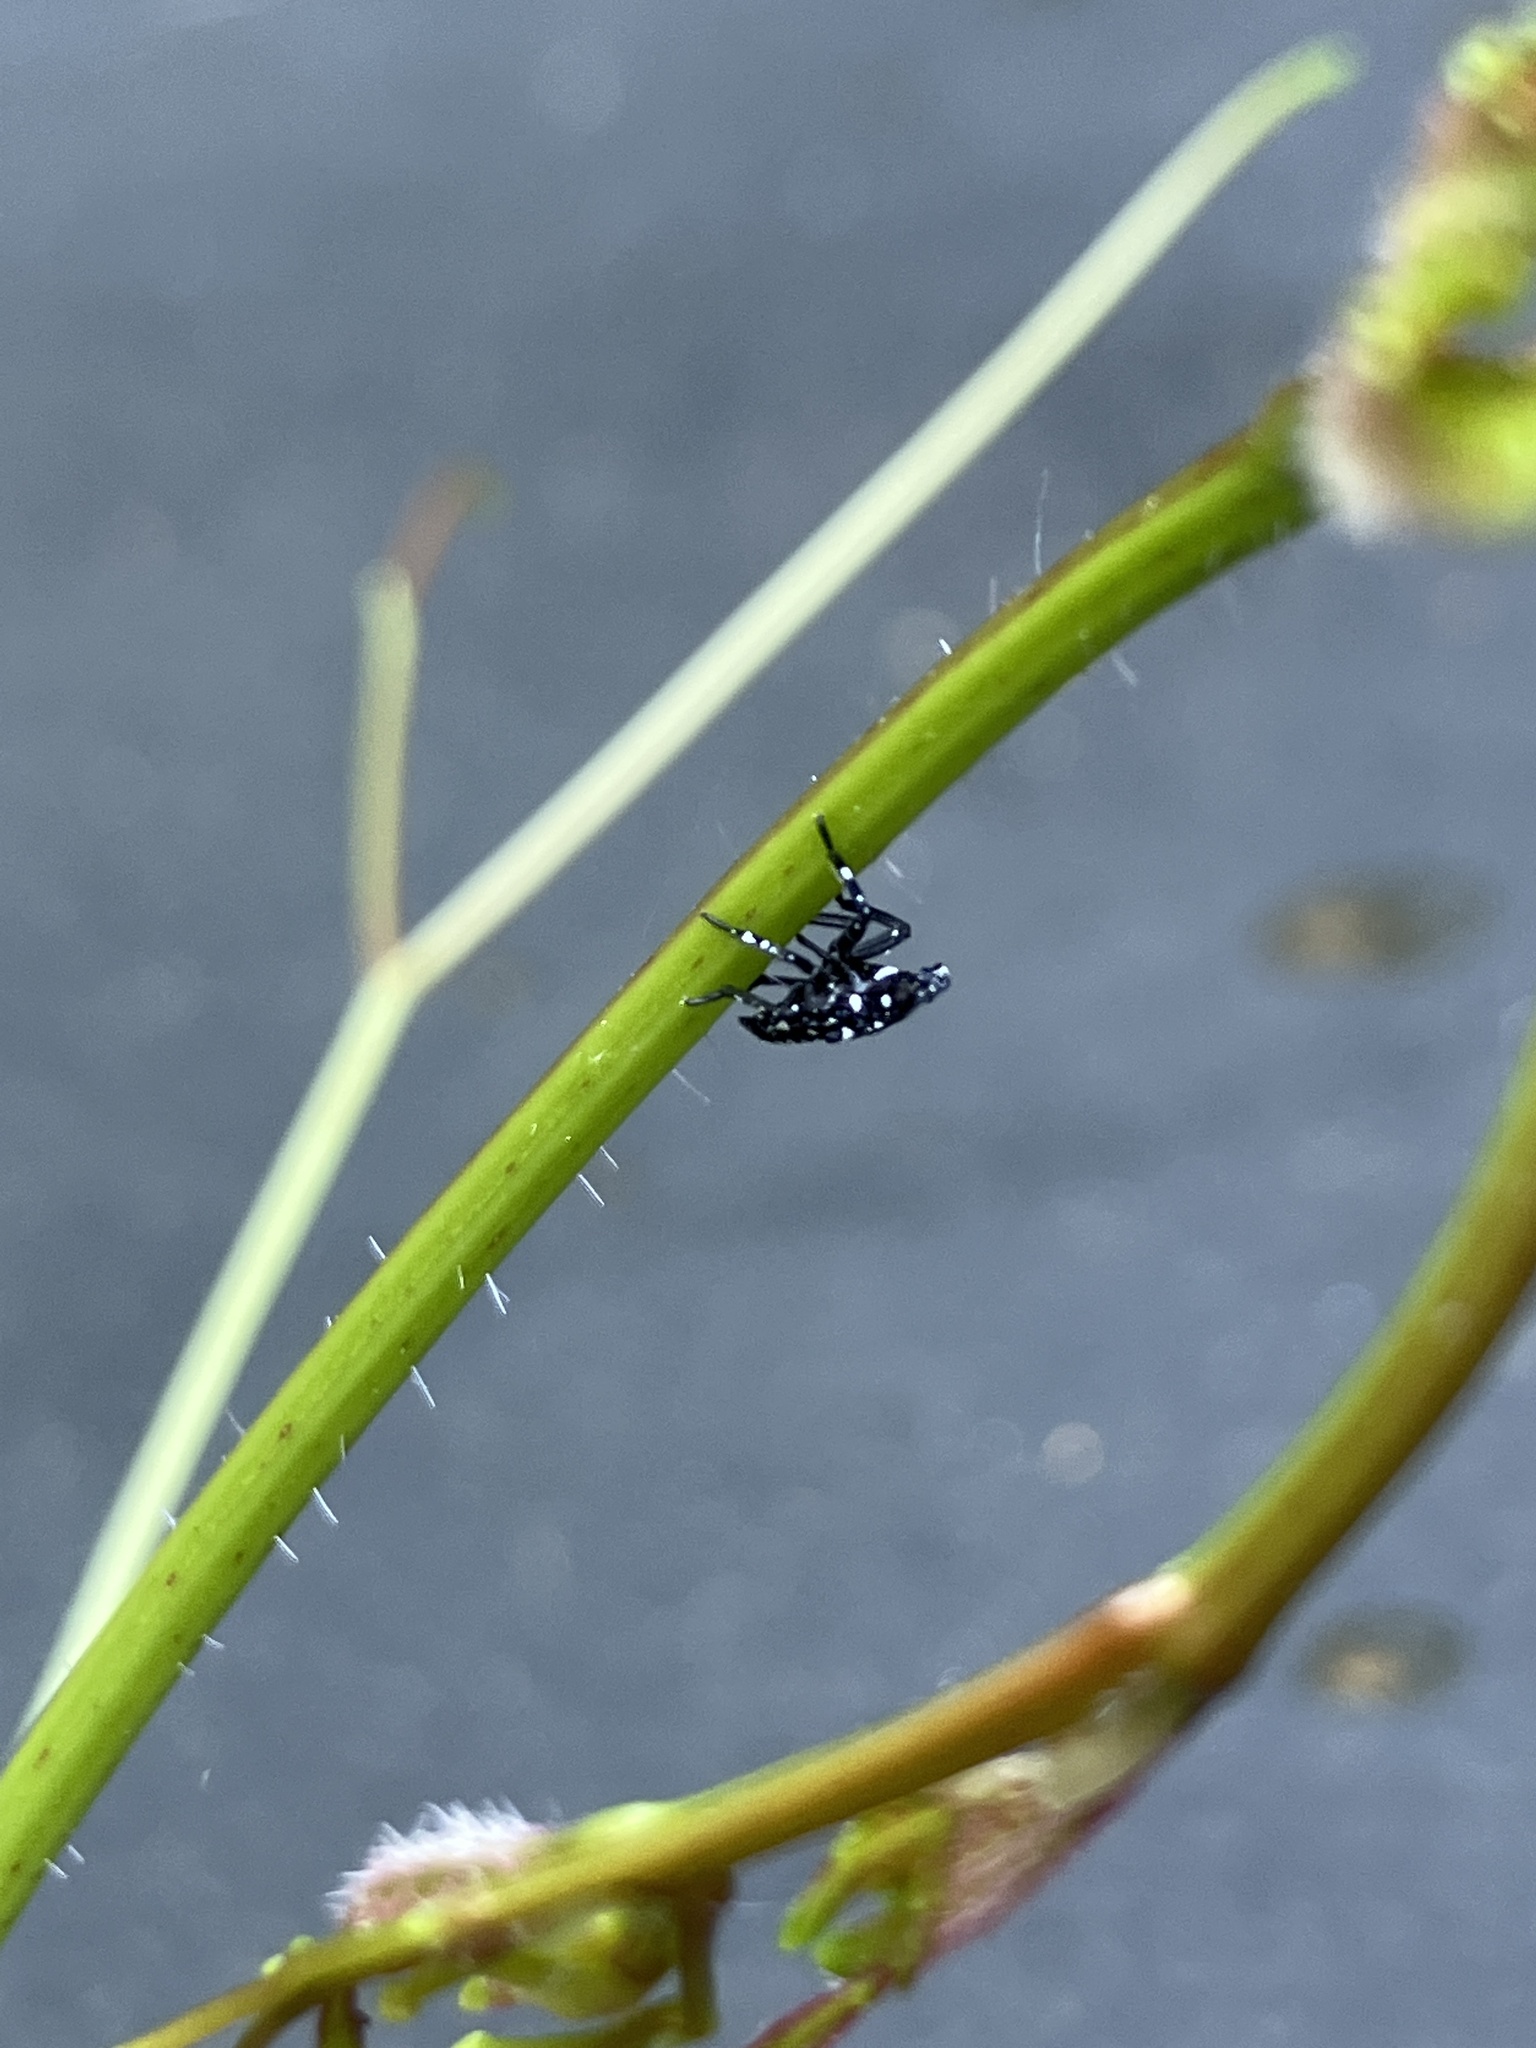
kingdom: Animalia
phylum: Arthropoda
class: Insecta
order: Hemiptera
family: Fulgoridae
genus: Lycorma
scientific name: Lycorma delicatula
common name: Spotted lanternfly
